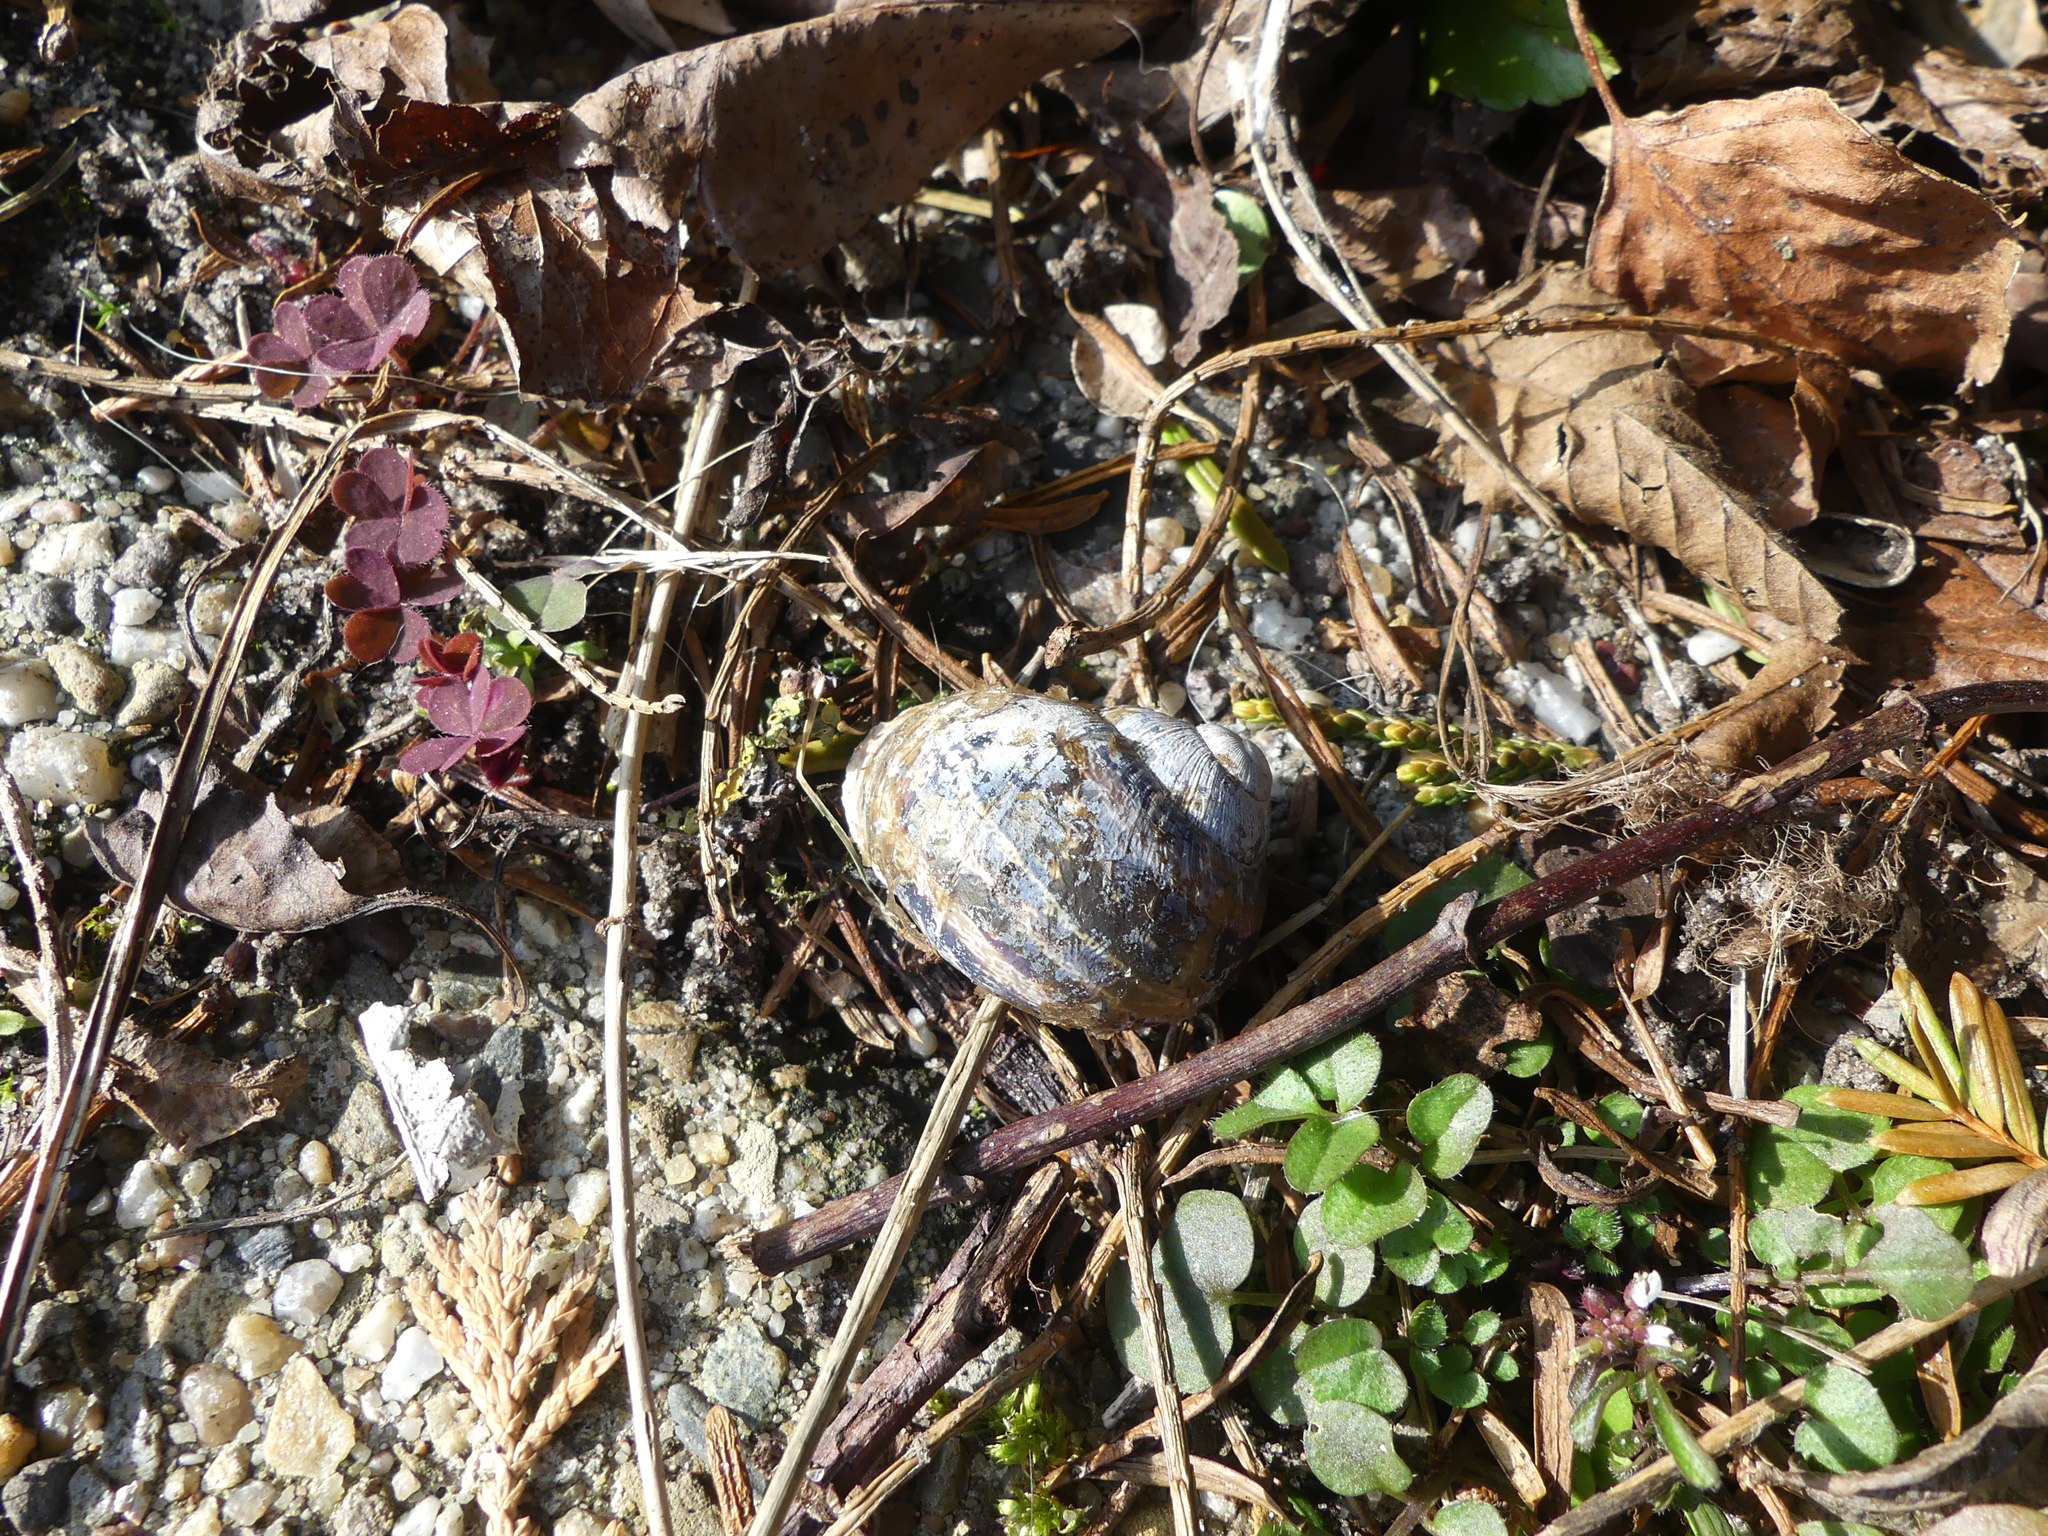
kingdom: Animalia
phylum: Mollusca
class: Gastropoda
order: Stylommatophora
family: Helicidae
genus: Cornu
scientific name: Cornu aspersum
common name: Brown garden snail
